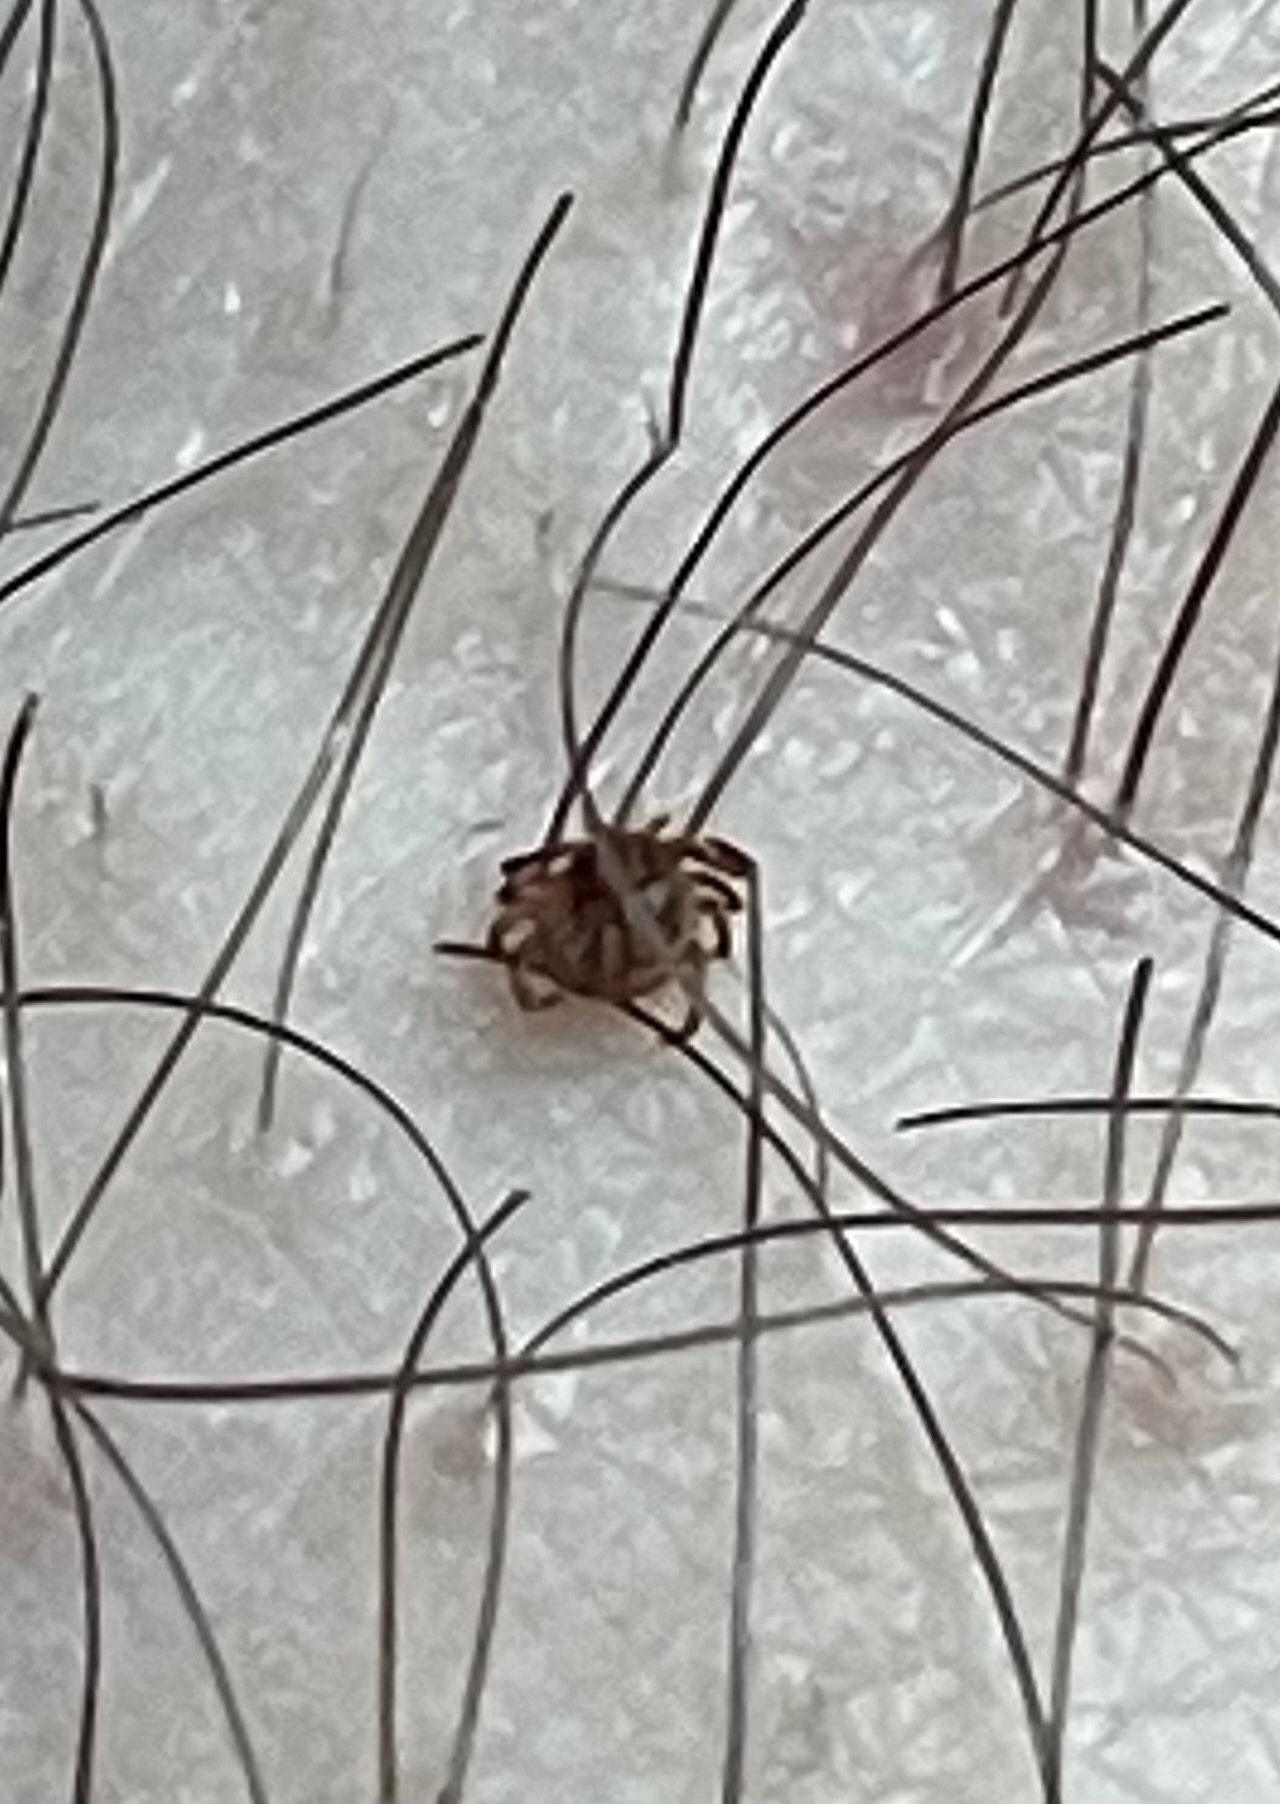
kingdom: Animalia
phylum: Arthropoda
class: Arachnida
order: Ixodida
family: Ixodidae
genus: Amblyomma
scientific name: Amblyomma americanum
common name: Lone star tick
